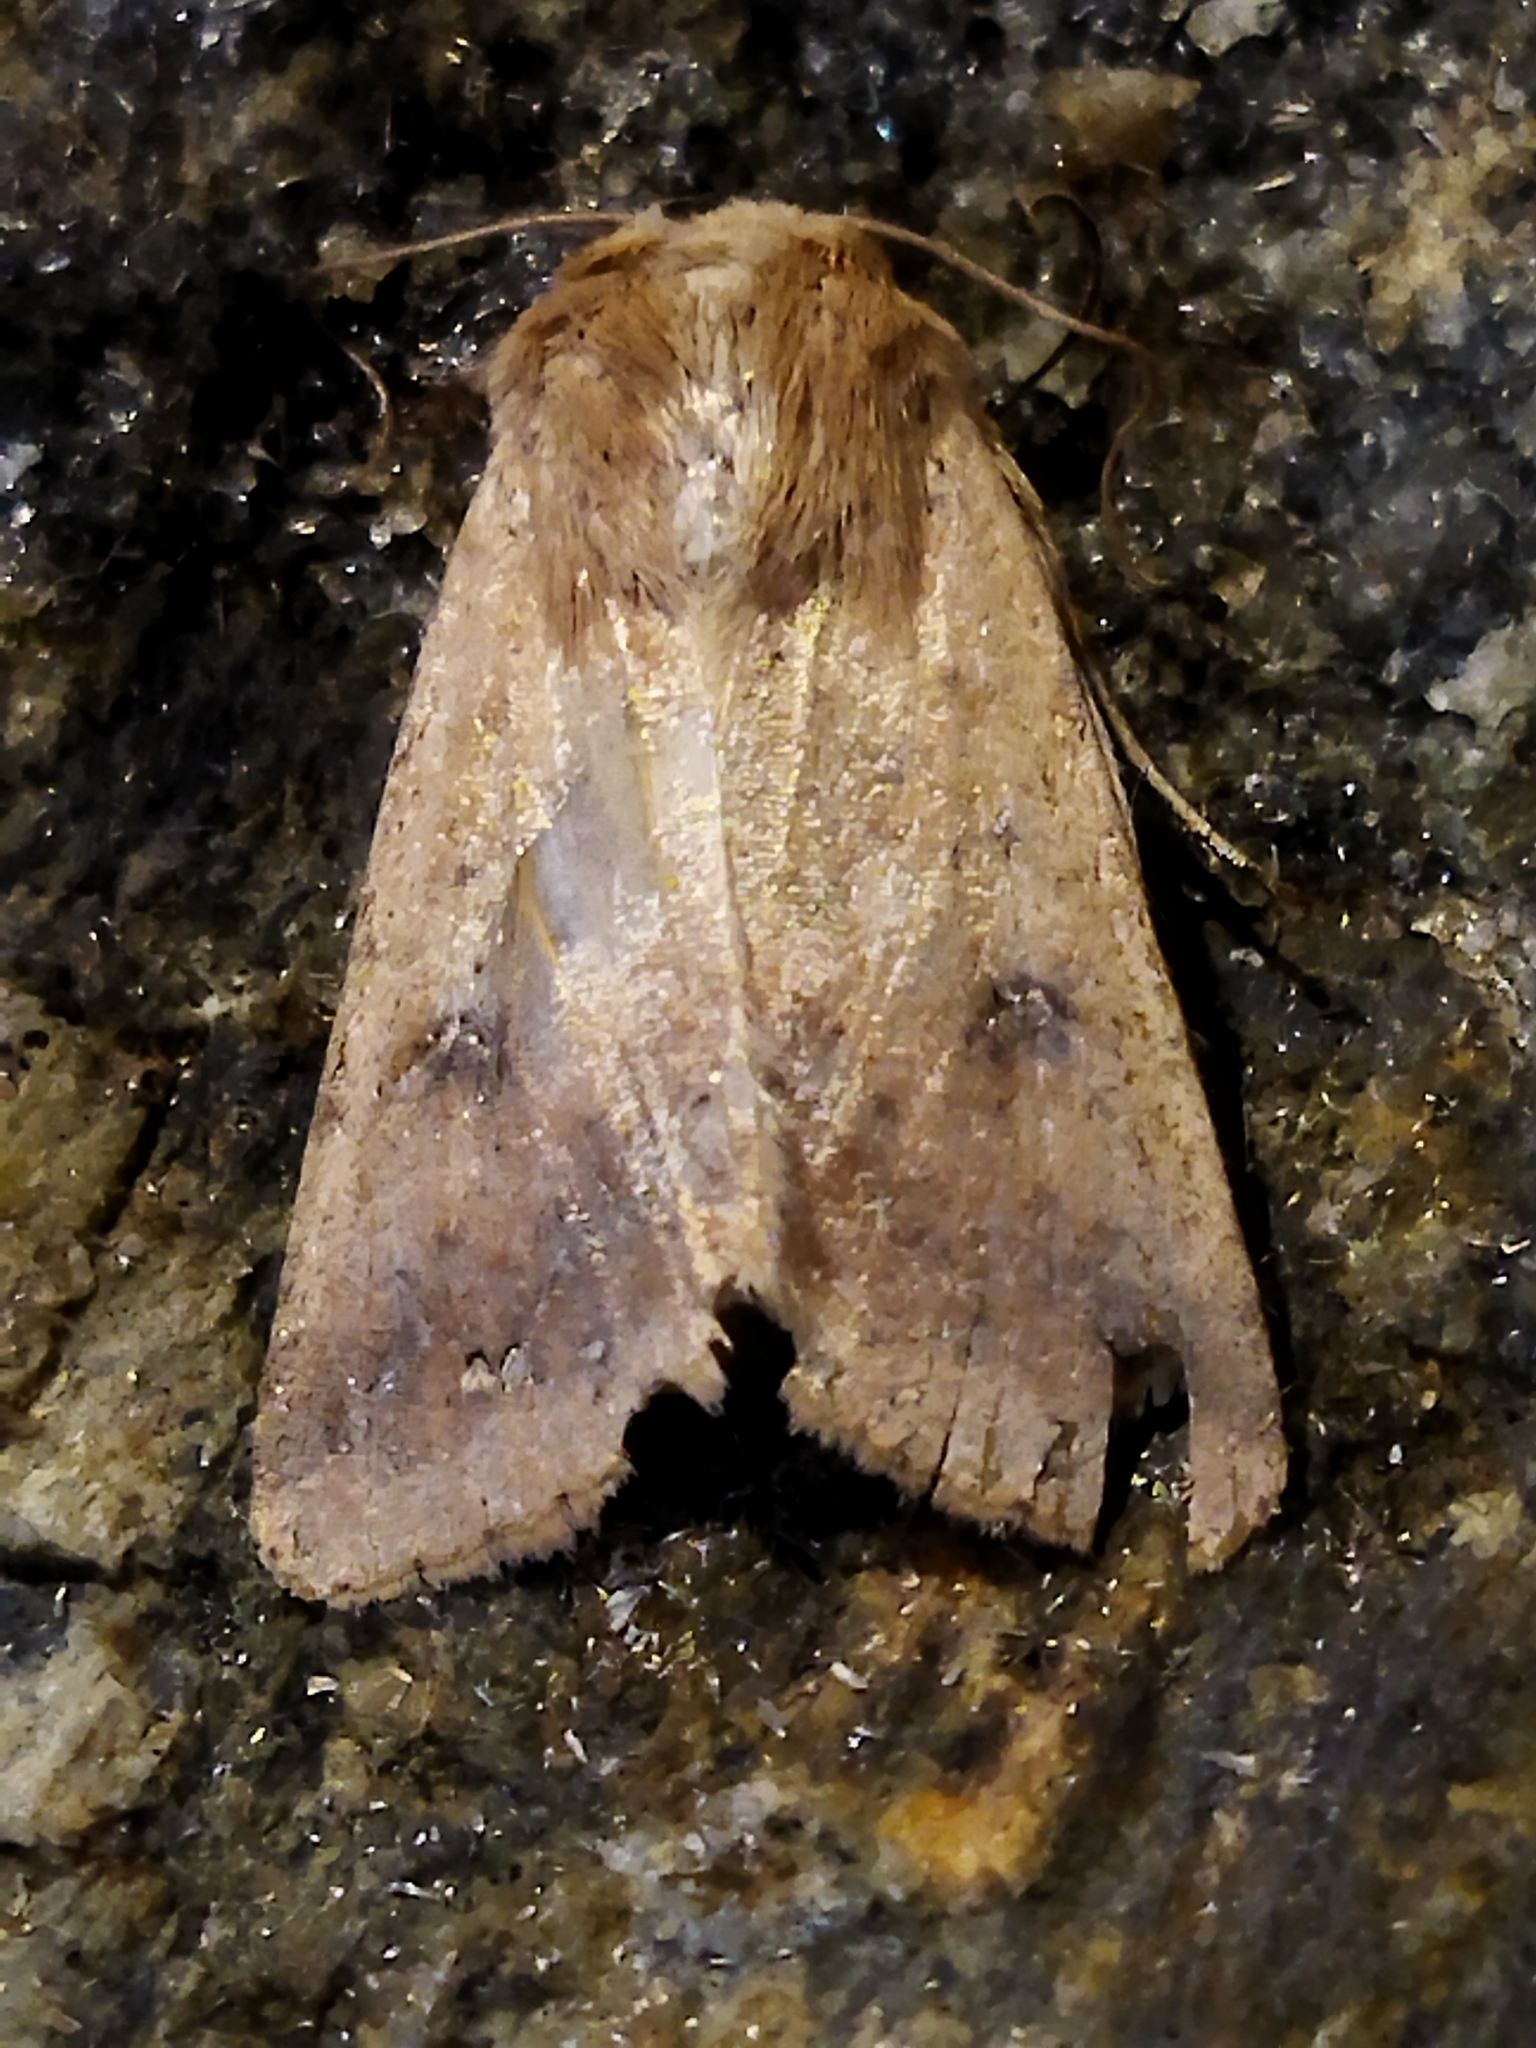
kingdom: Animalia
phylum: Arthropoda
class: Insecta
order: Lepidoptera
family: Noctuidae
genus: Helicoverpa
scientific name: Helicoverpa armigera
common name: Cotton bollworm
